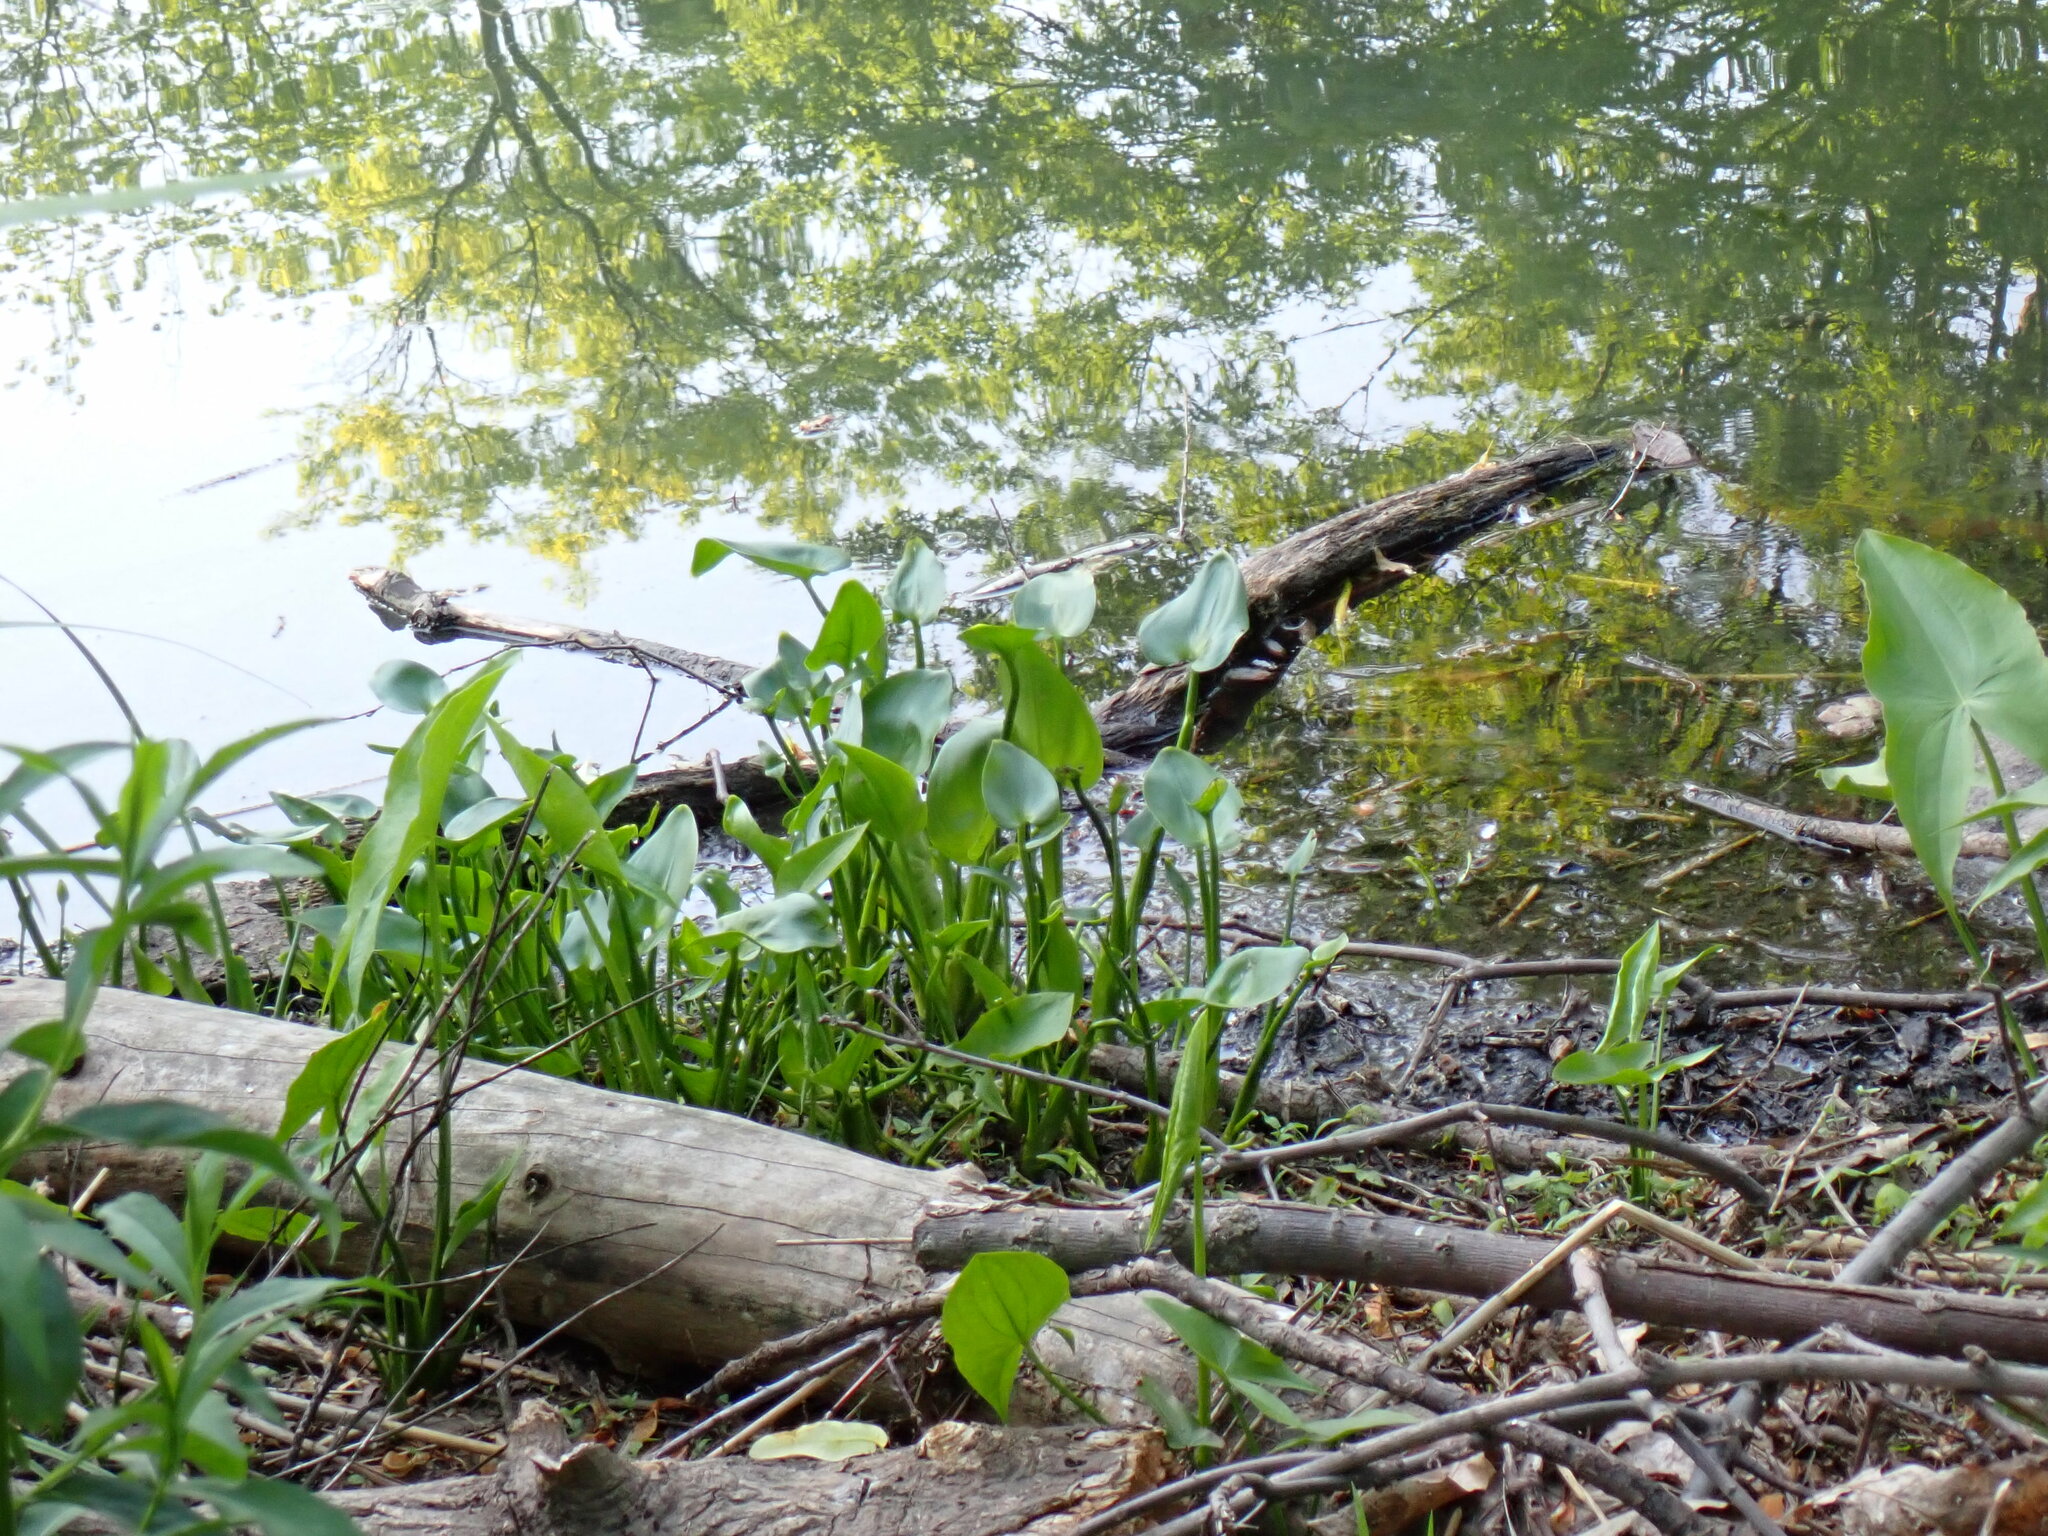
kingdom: Plantae
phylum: Tracheophyta
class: Liliopsida
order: Commelinales
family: Pontederiaceae
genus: Pontederia
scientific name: Pontederia cordata
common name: Pickerelweed
